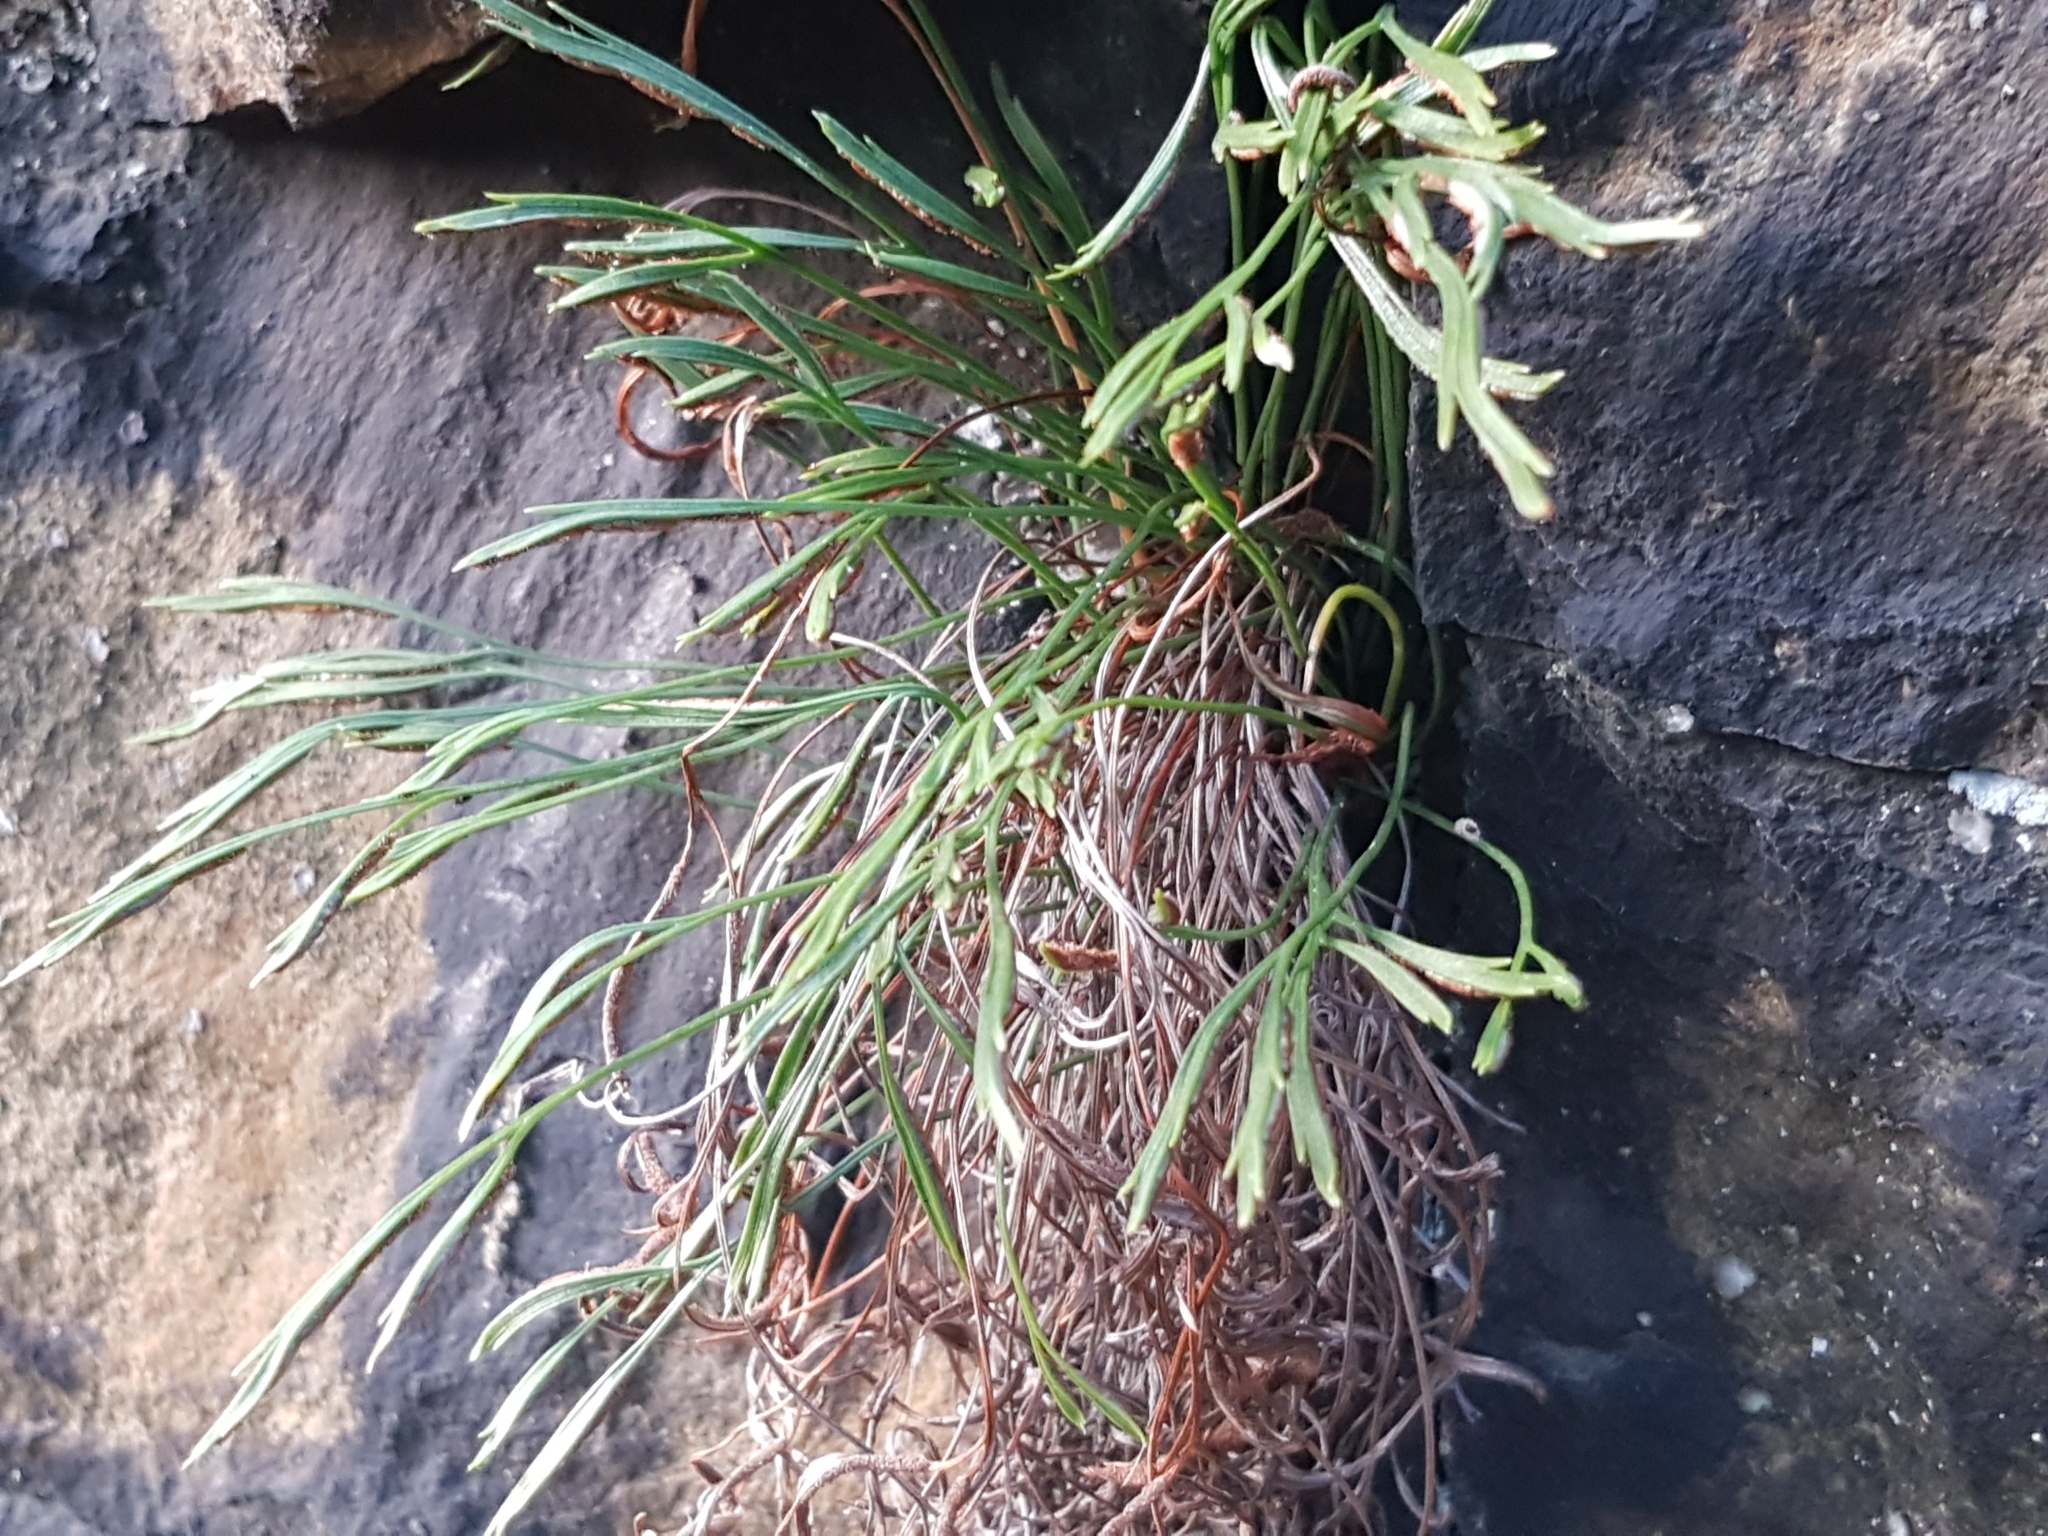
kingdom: Plantae
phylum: Tracheophyta
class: Polypodiopsida
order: Polypodiales
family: Aspleniaceae
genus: Asplenium
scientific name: Asplenium septentrionale
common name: Forked spleenwort
